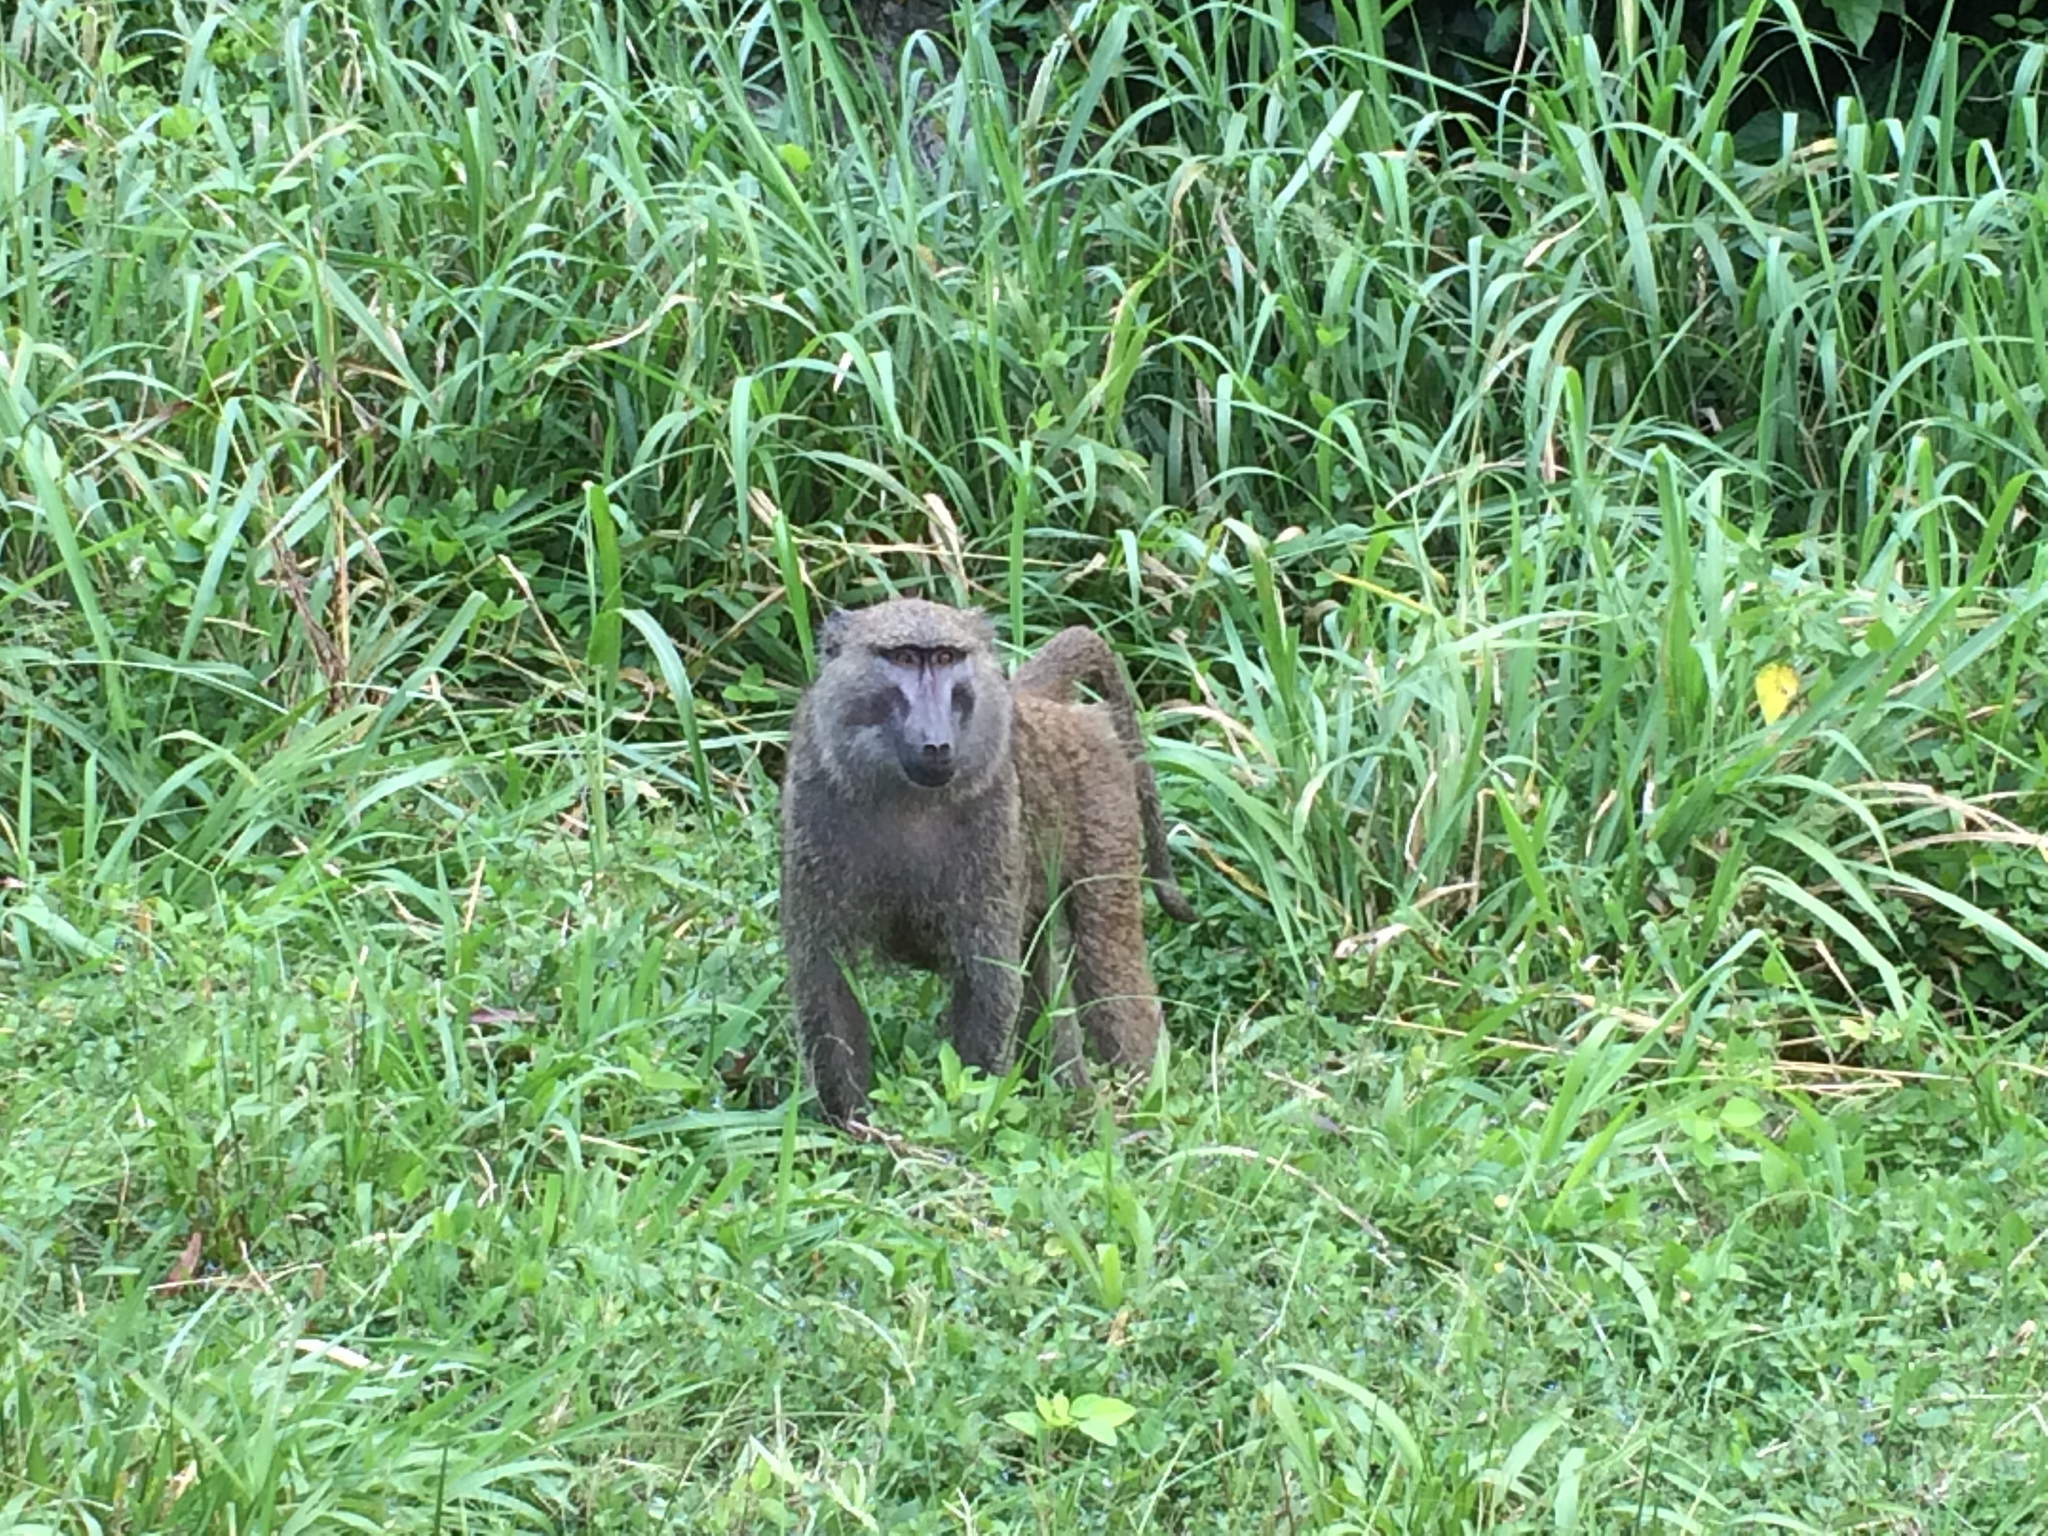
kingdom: Animalia
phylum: Chordata
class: Mammalia
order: Primates
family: Cercopithecidae
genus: Papio
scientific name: Papio anubis
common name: Olive baboon
